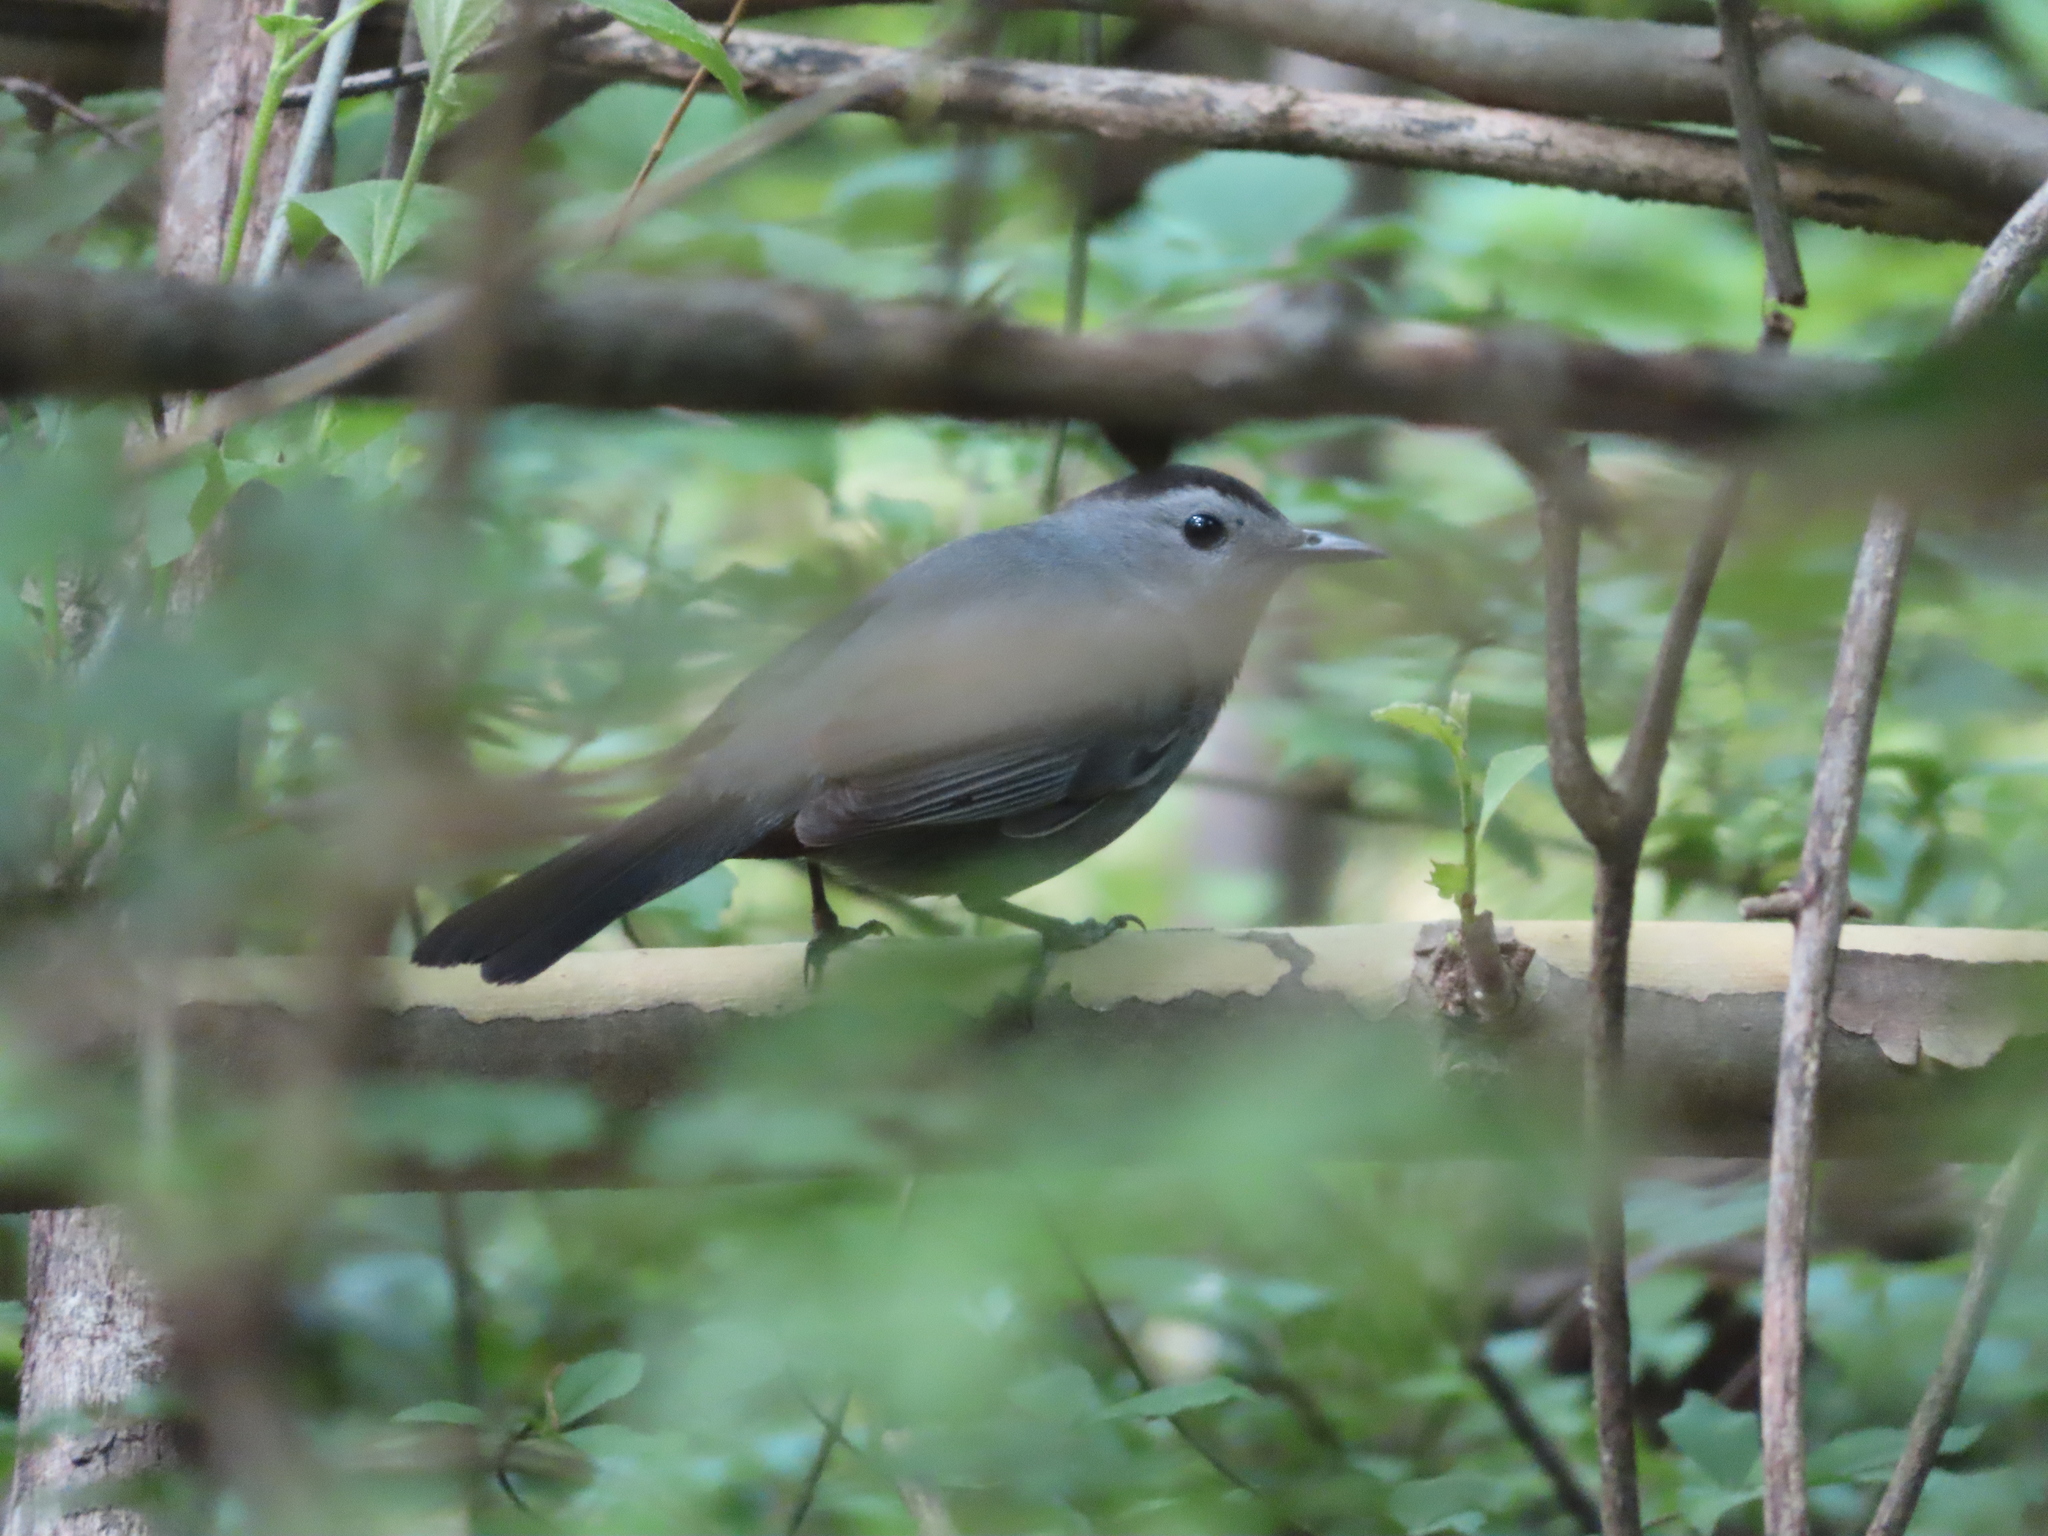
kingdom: Animalia
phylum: Chordata
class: Aves
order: Passeriformes
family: Mimidae
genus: Dumetella
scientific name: Dumetella carolinensis
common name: Gray catbird
